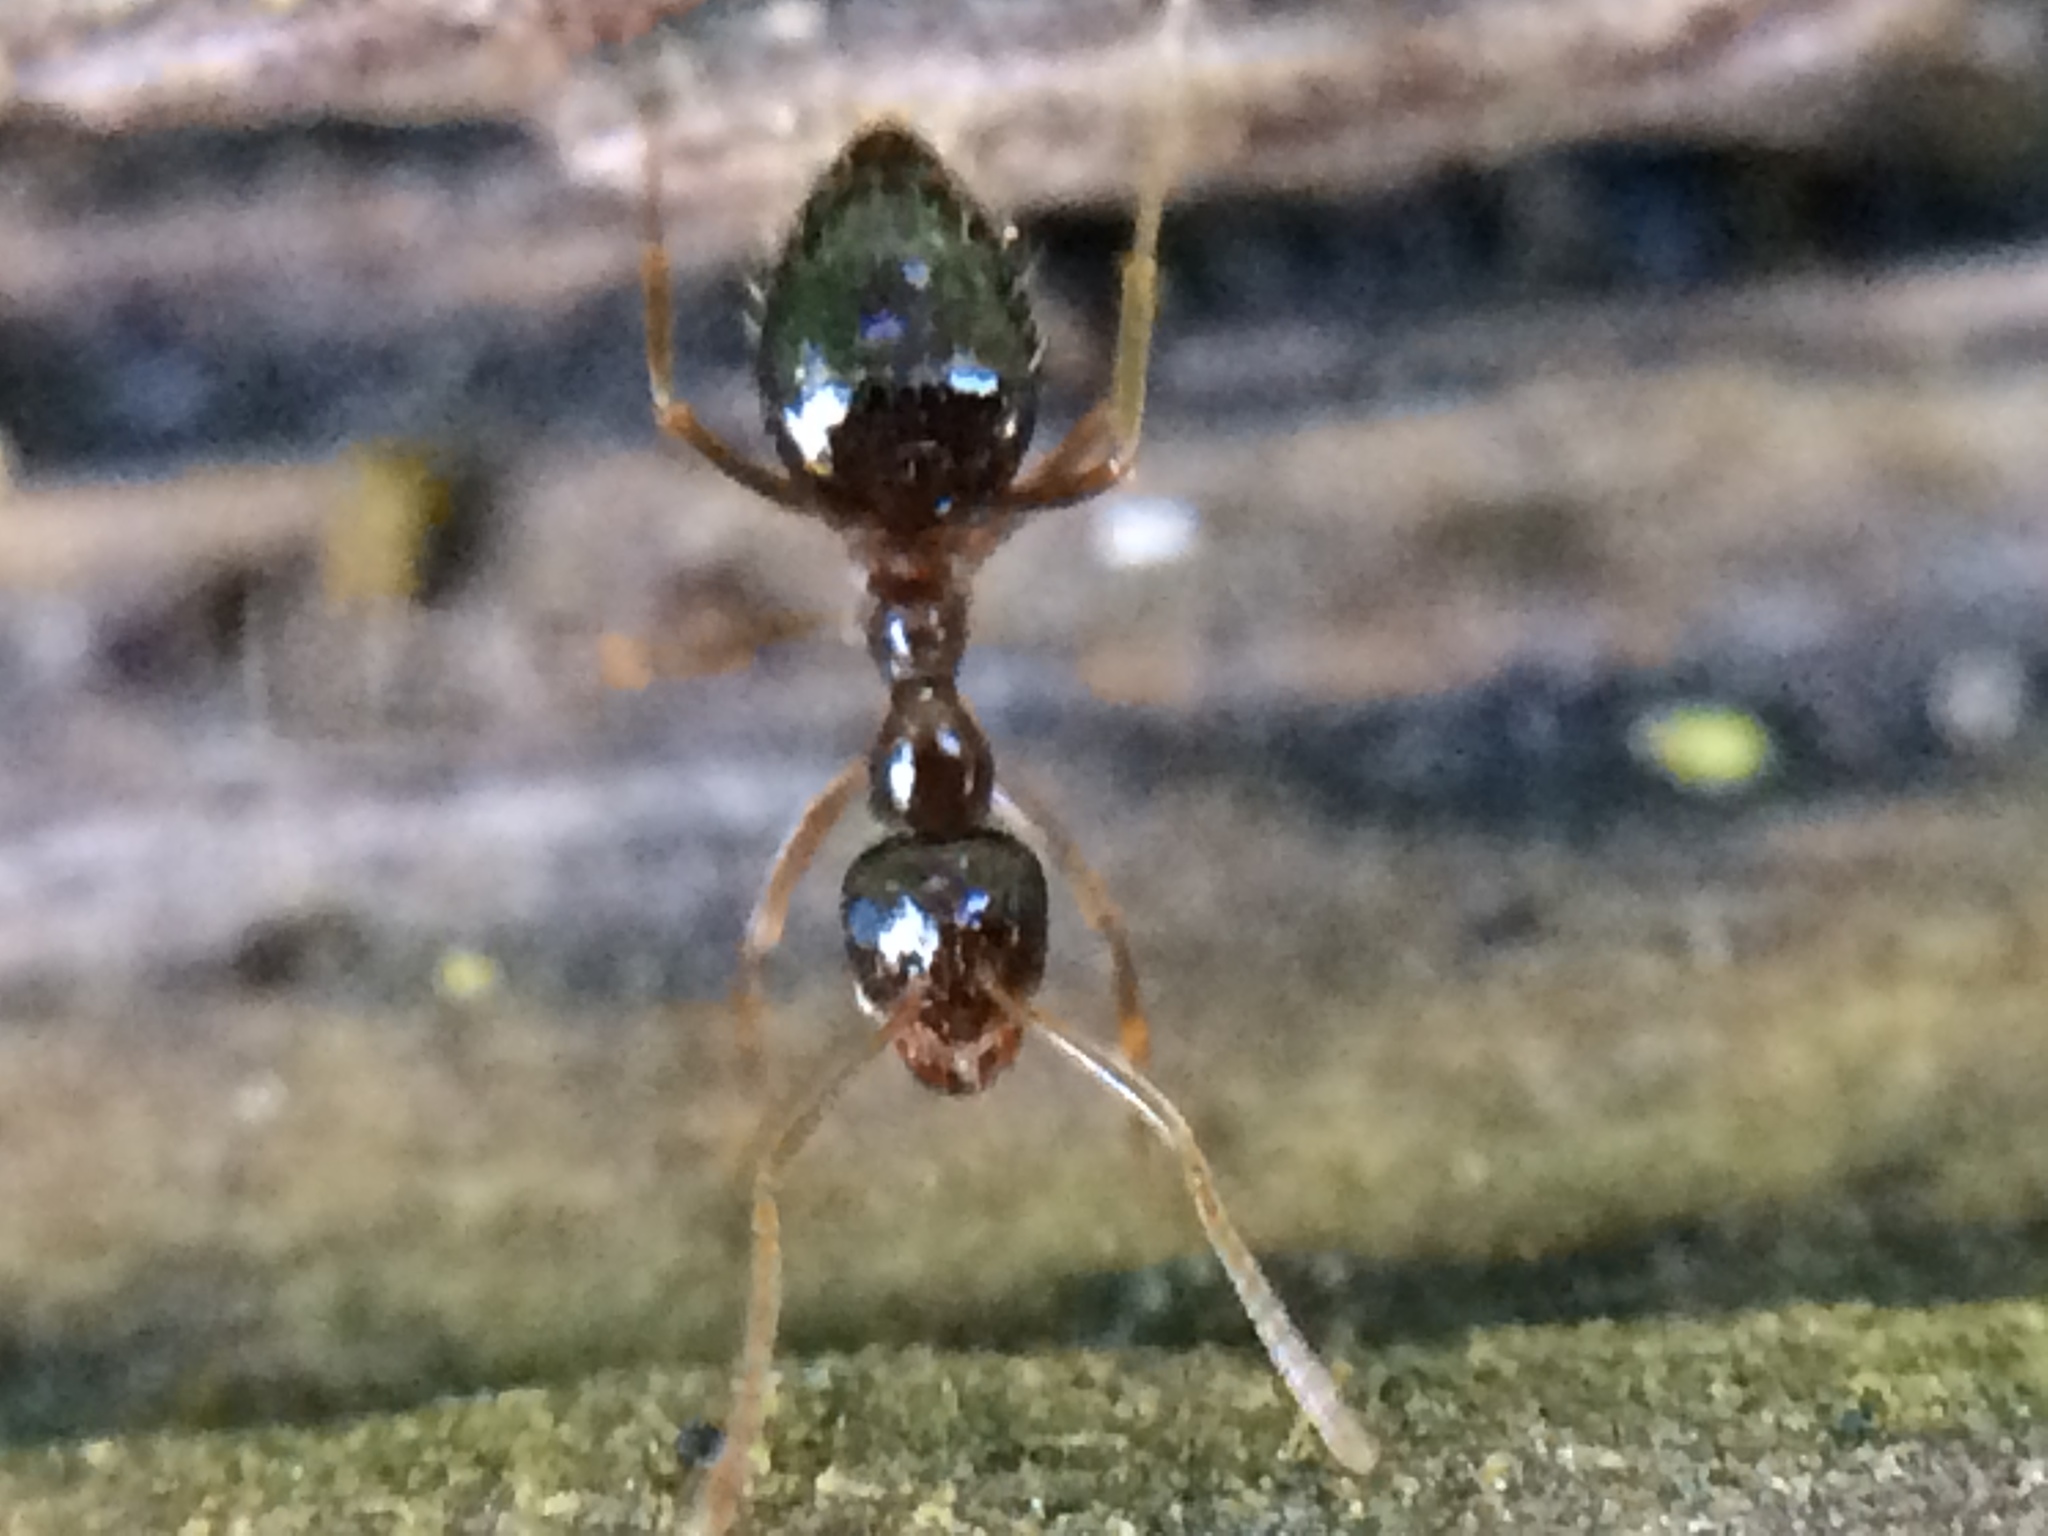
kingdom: Animalia
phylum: Arthropoda
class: Insecta
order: Hymenoptera
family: Formicidae
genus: Prenolepis
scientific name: Prenolepis imparis
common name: Small honey ant
